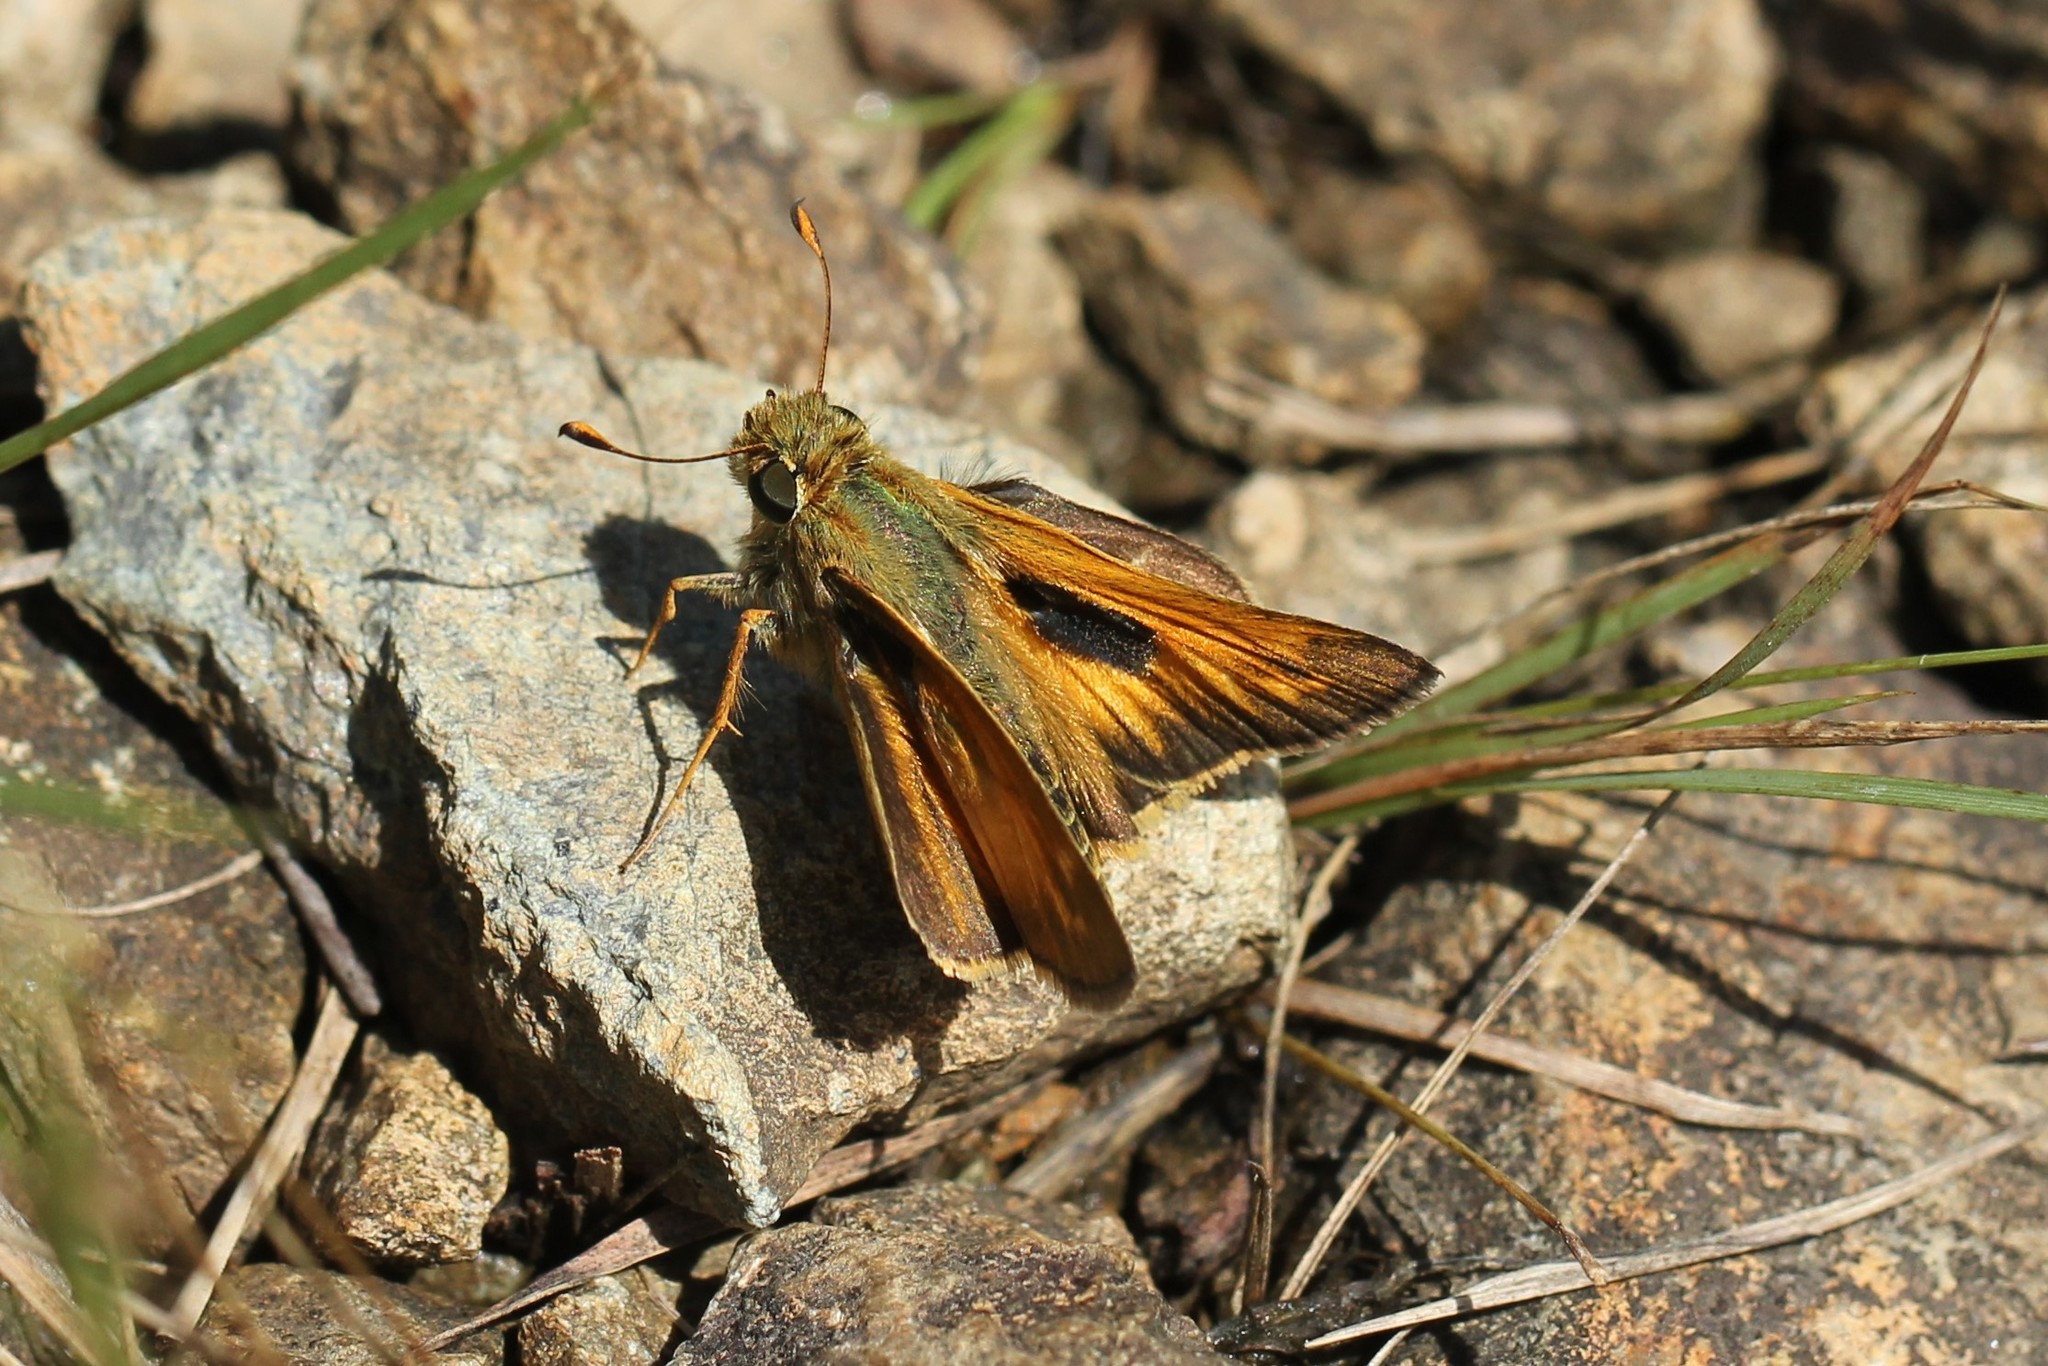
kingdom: Animalia
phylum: Arthropoda
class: Insecta
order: Lepidoptera
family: Hesperiidae
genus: Atalopedes
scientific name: Atalopedes
